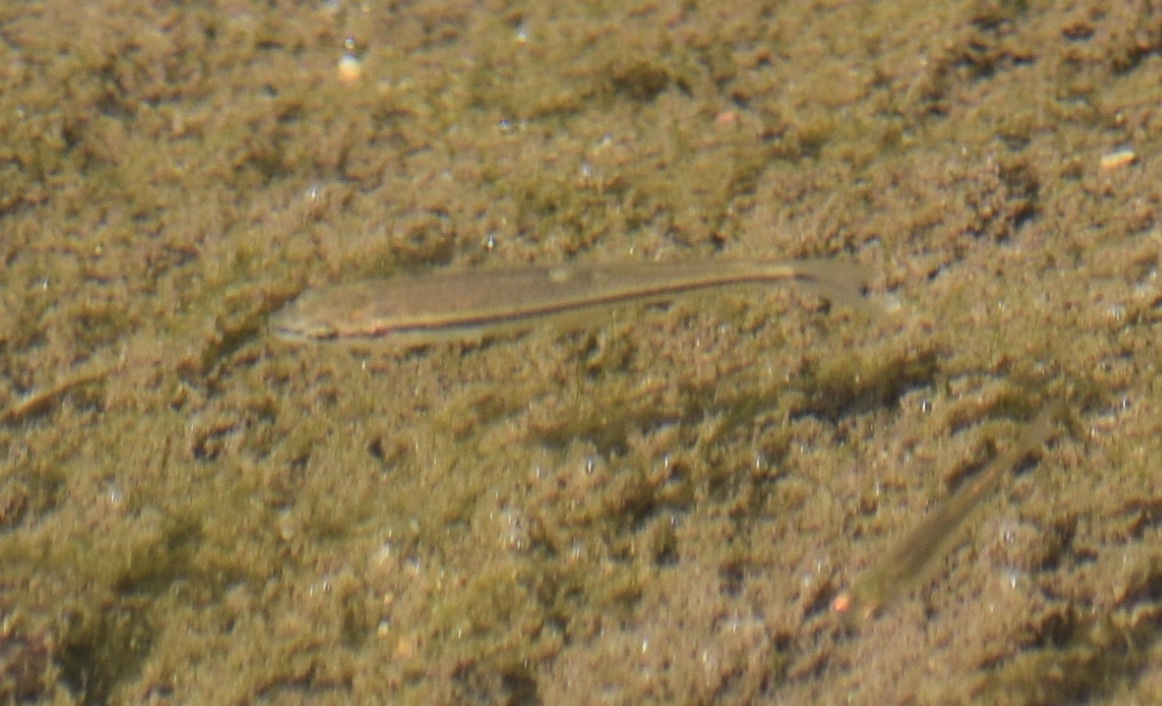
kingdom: Animalia
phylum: Chordata
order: Cypriniformes
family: Cyprinidae
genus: Rhinichthys
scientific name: Rhinichthys atratulus
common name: Eastern blacknose dace
